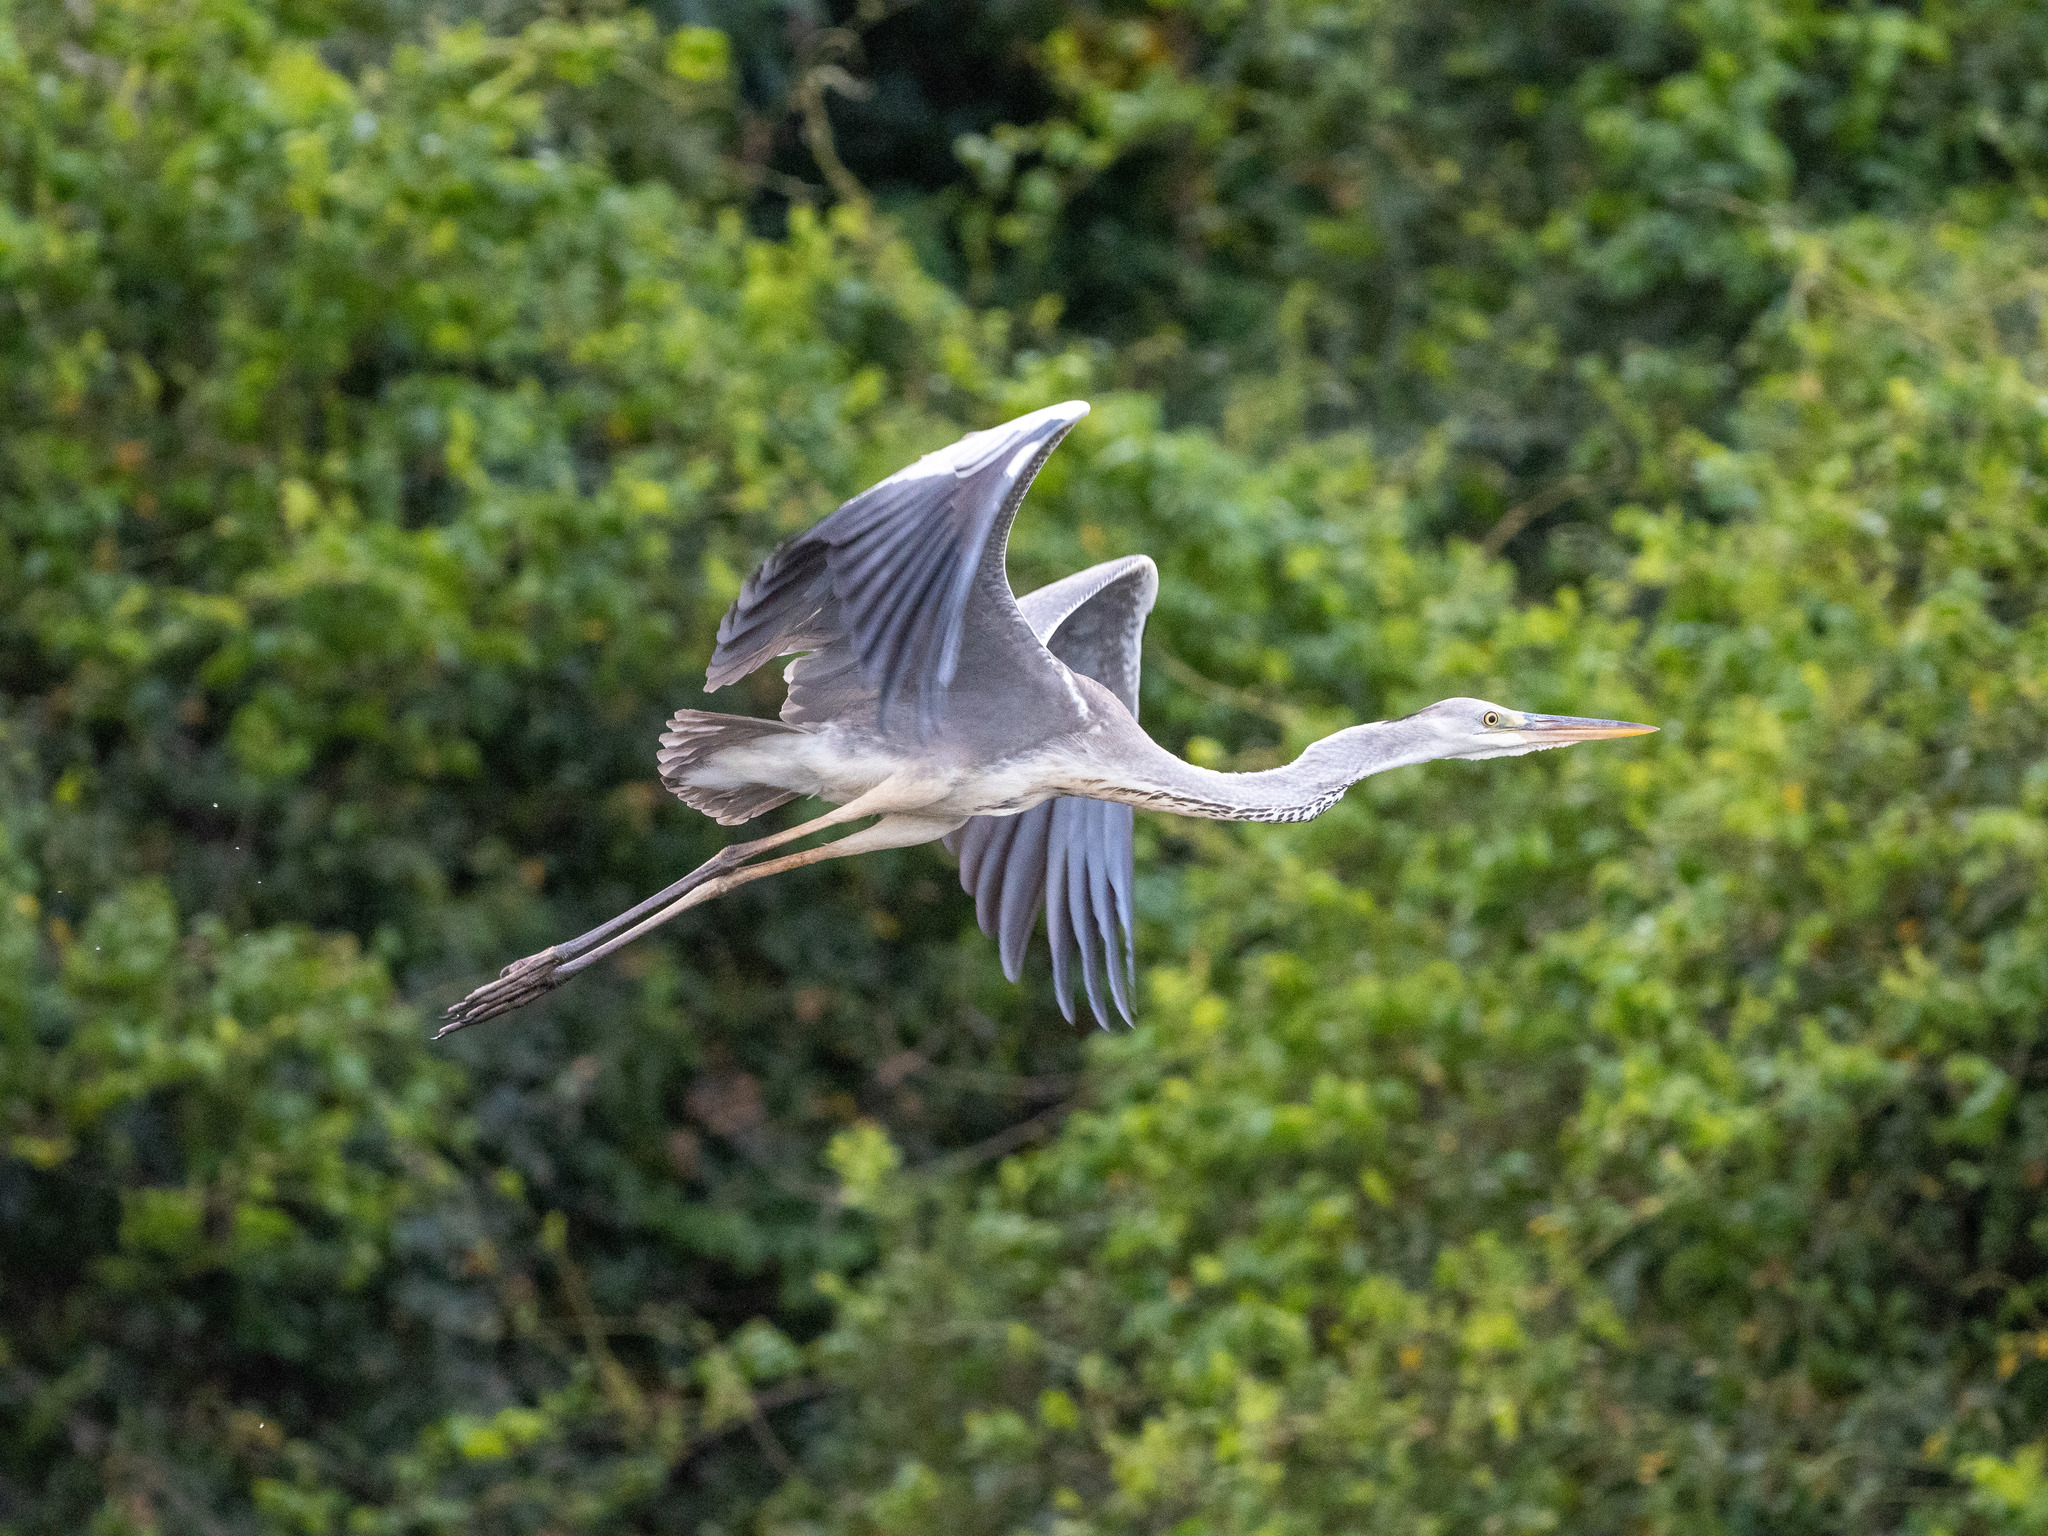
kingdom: Animalia
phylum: Chordata
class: Aves
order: Pelecaniformes
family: Ardeidae
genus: Ardea
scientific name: Ardea cinerea
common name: Grey heron
